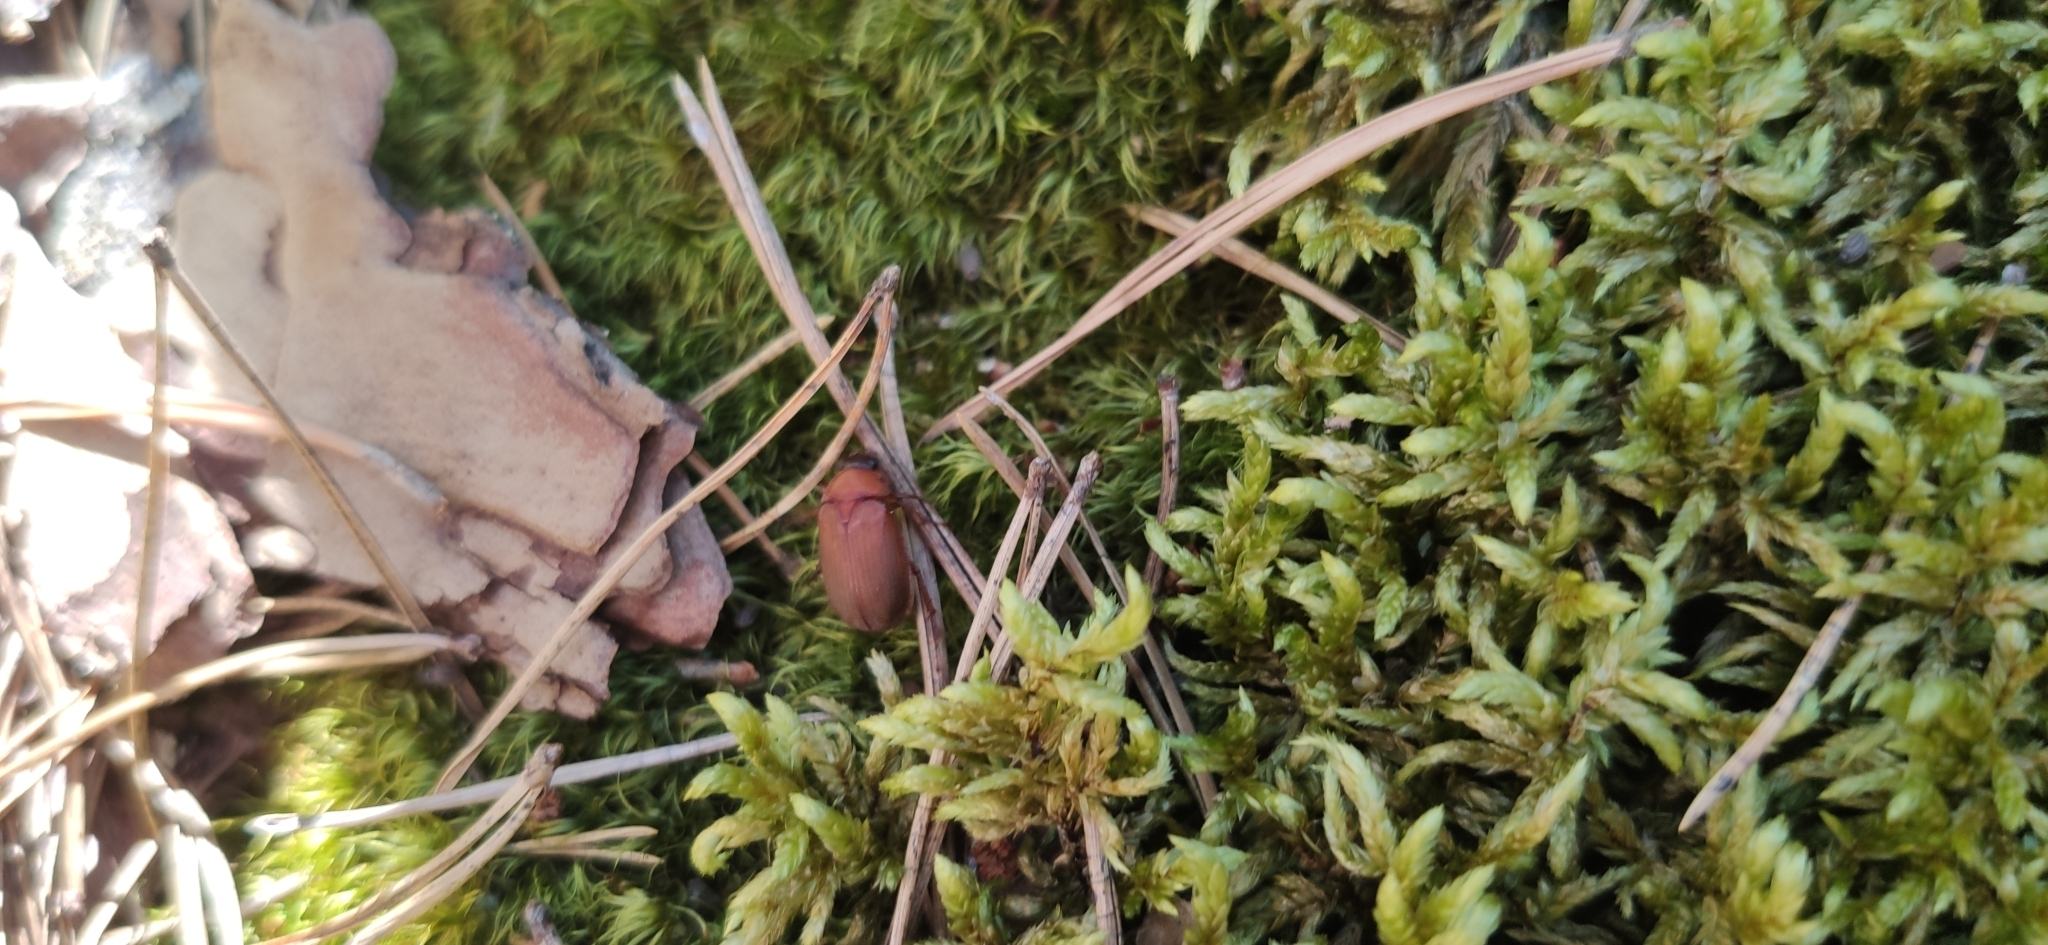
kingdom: Animalia
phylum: Arthropoda
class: Insecta
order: Coleoptera
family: Scarabaeidae
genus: Serica
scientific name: Serica brunnea
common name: Brown chafer
